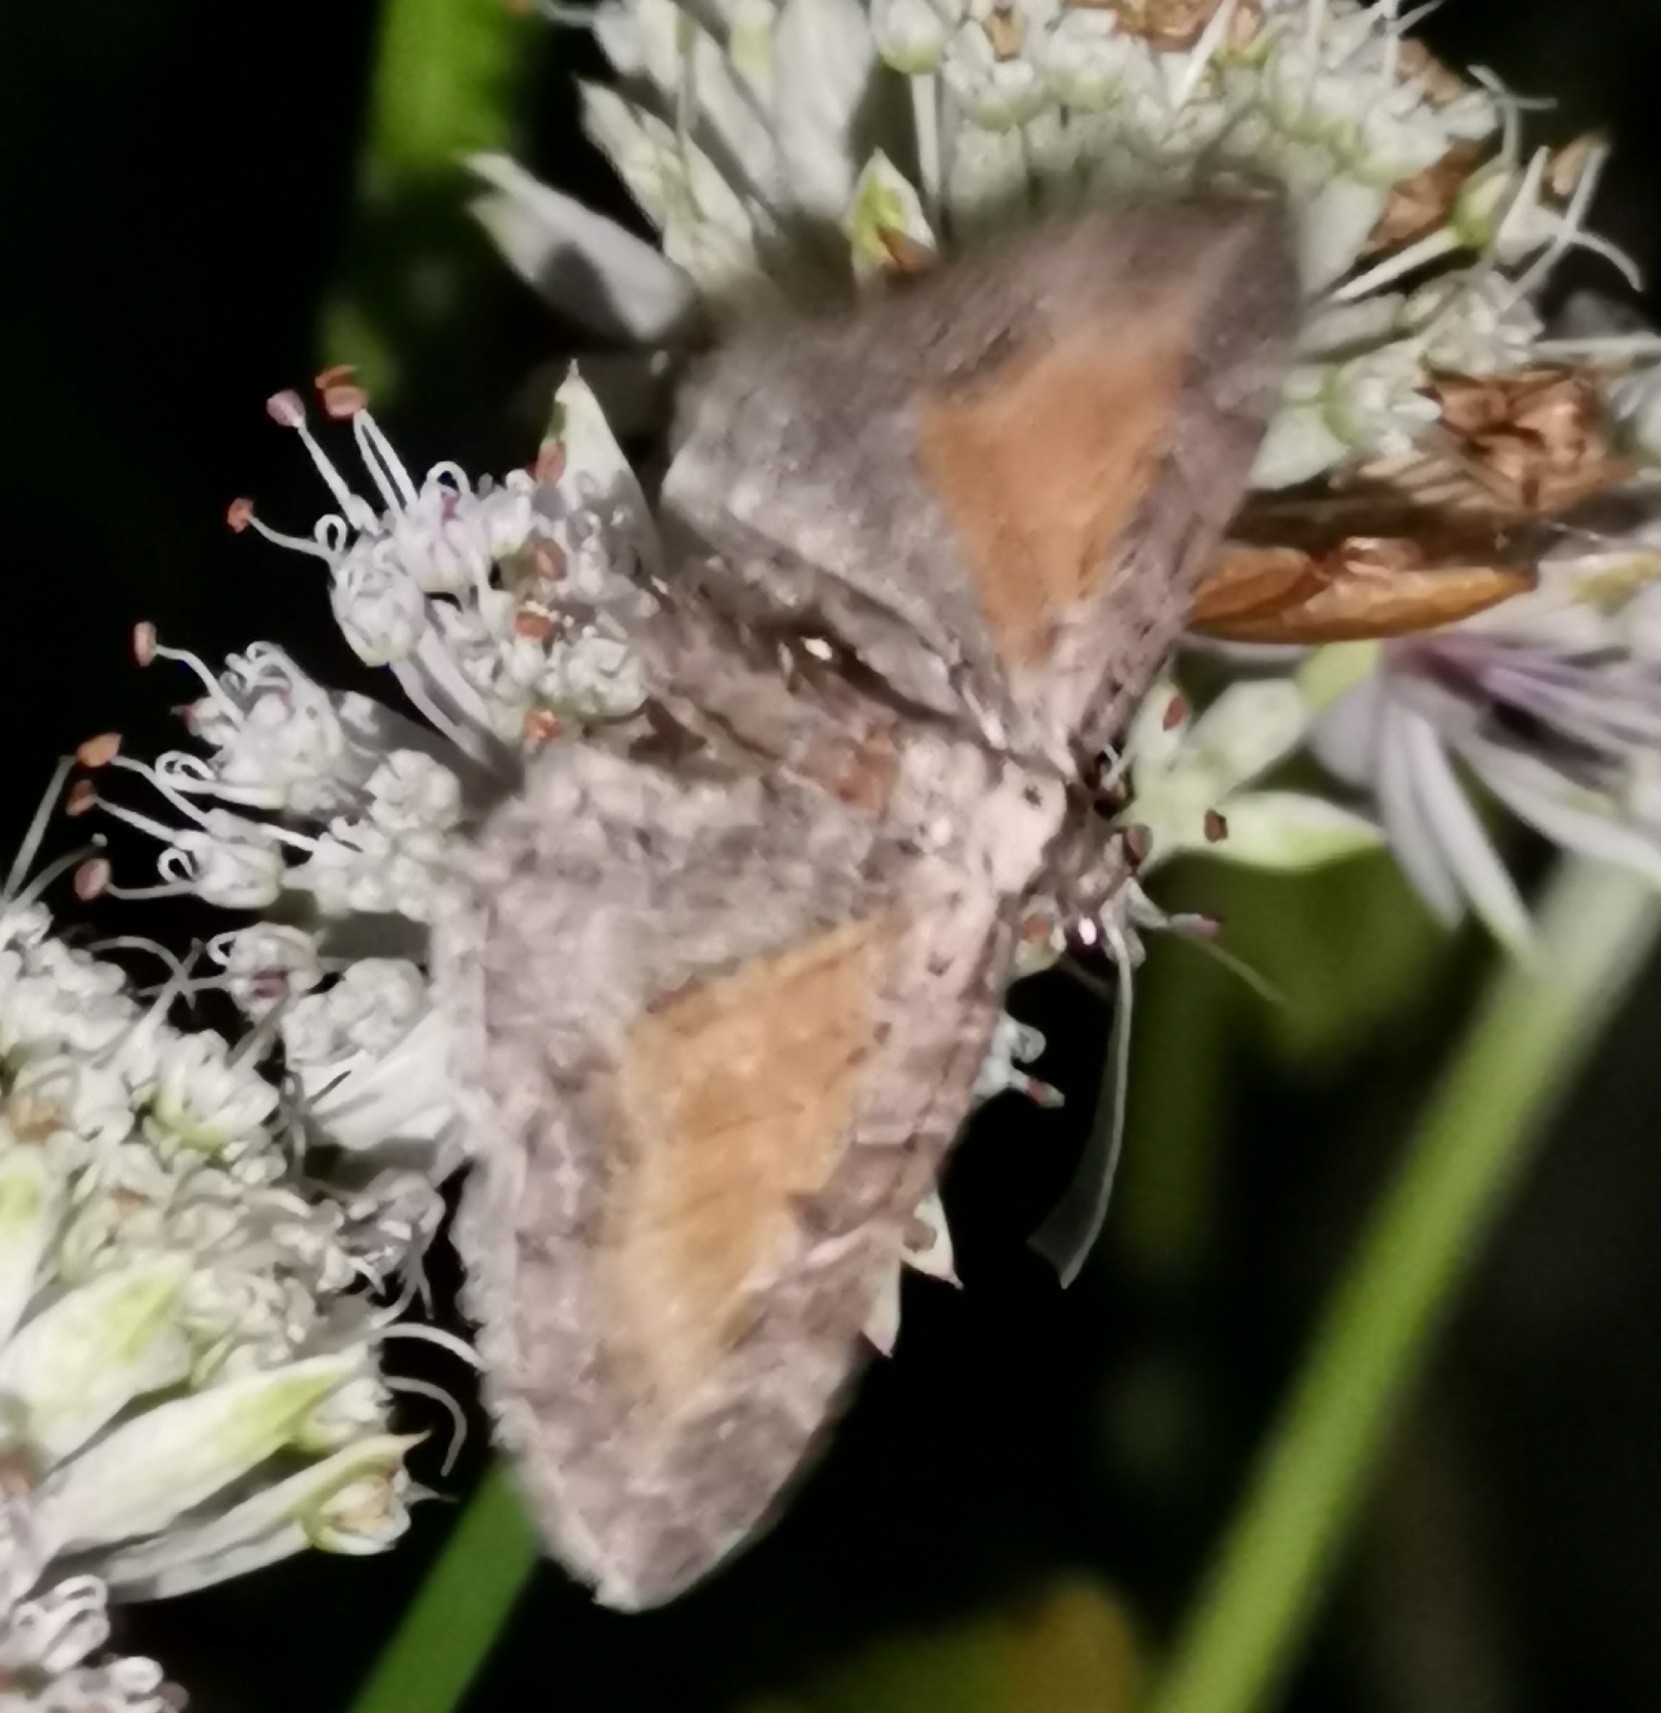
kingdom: Animalia
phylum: Arthropoda
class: Insecta
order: Lepidoptera
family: Geometridae
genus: Eupithecia
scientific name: Eupithecia icterata
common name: Tawny speckled pug
